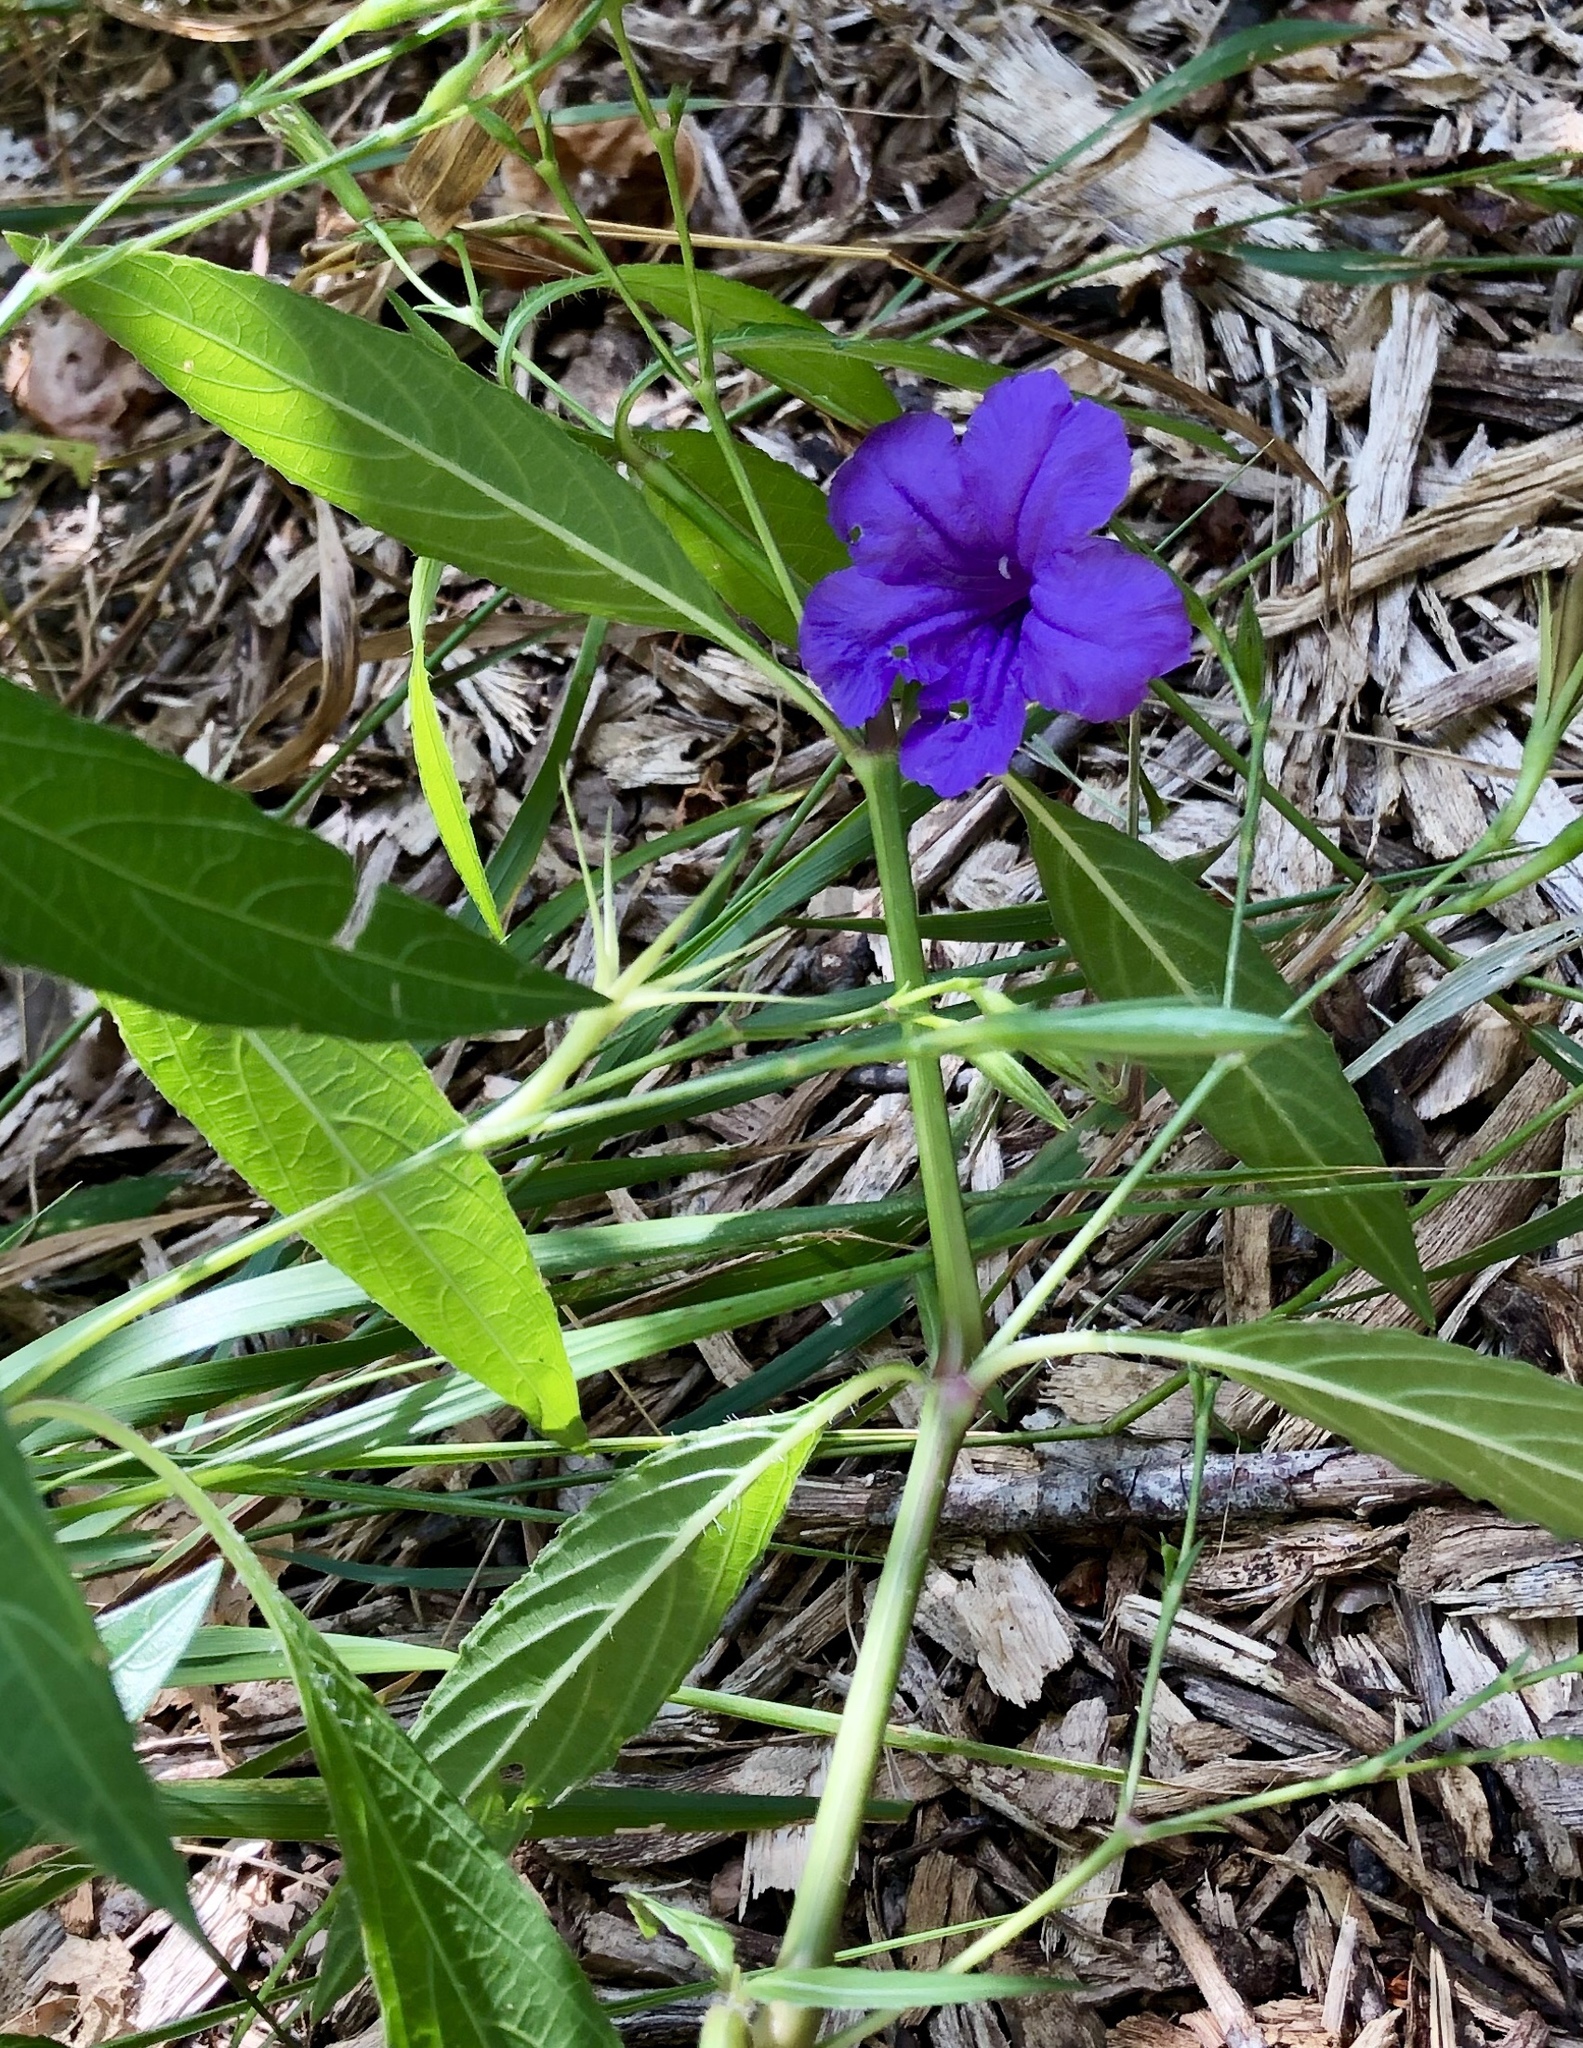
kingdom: Plantae
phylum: Tracheophyta
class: Magnoliopsida
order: Lamiales
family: Acanthaceae
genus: Ruellia
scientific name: Ruellia simplex
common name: Softseed wild petunia
